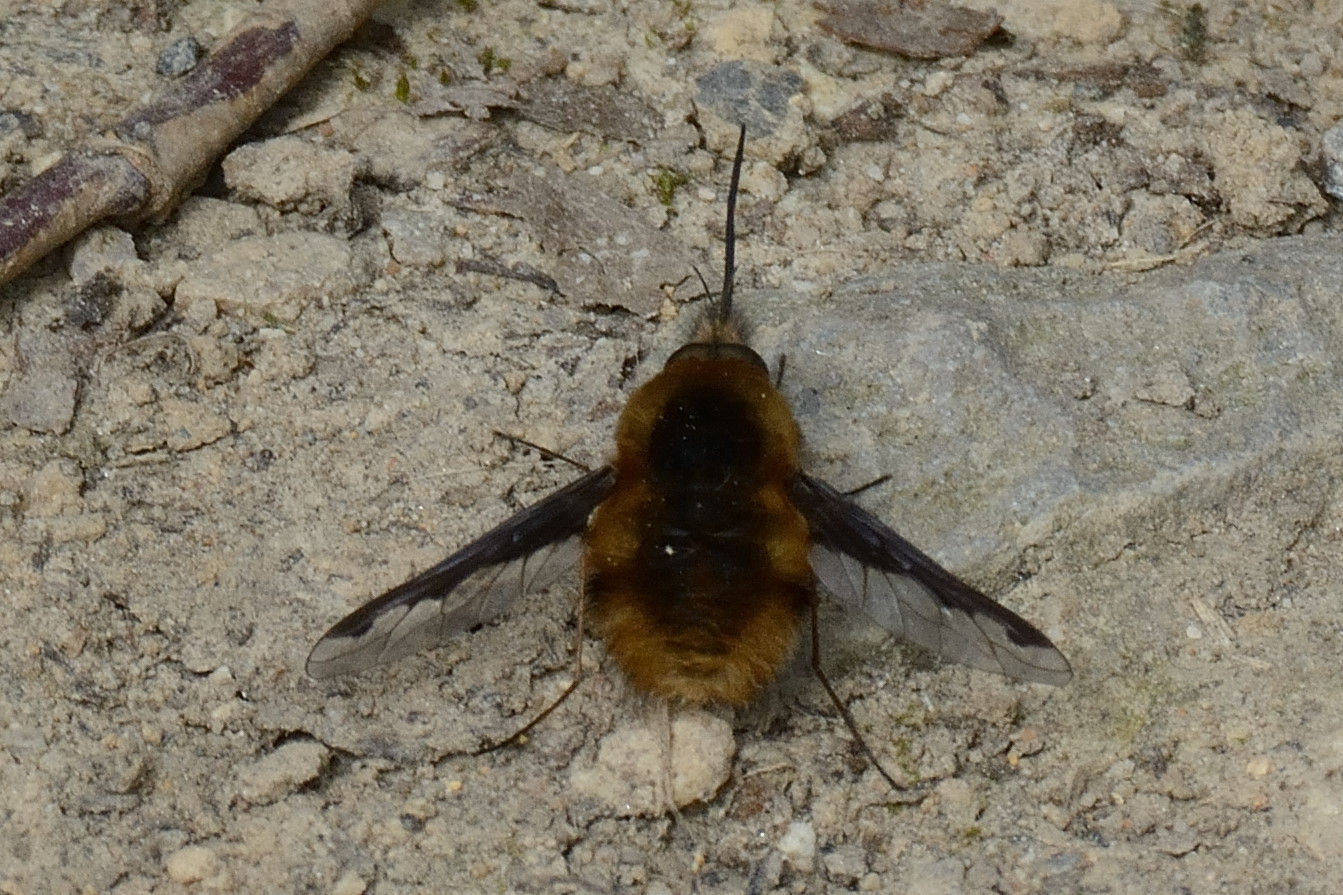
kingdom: Animalia
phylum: Arthropoda
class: Insecta
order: Diptera
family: Bombyliidae
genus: Bombylius
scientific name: Bombylius major
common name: Bee fly
